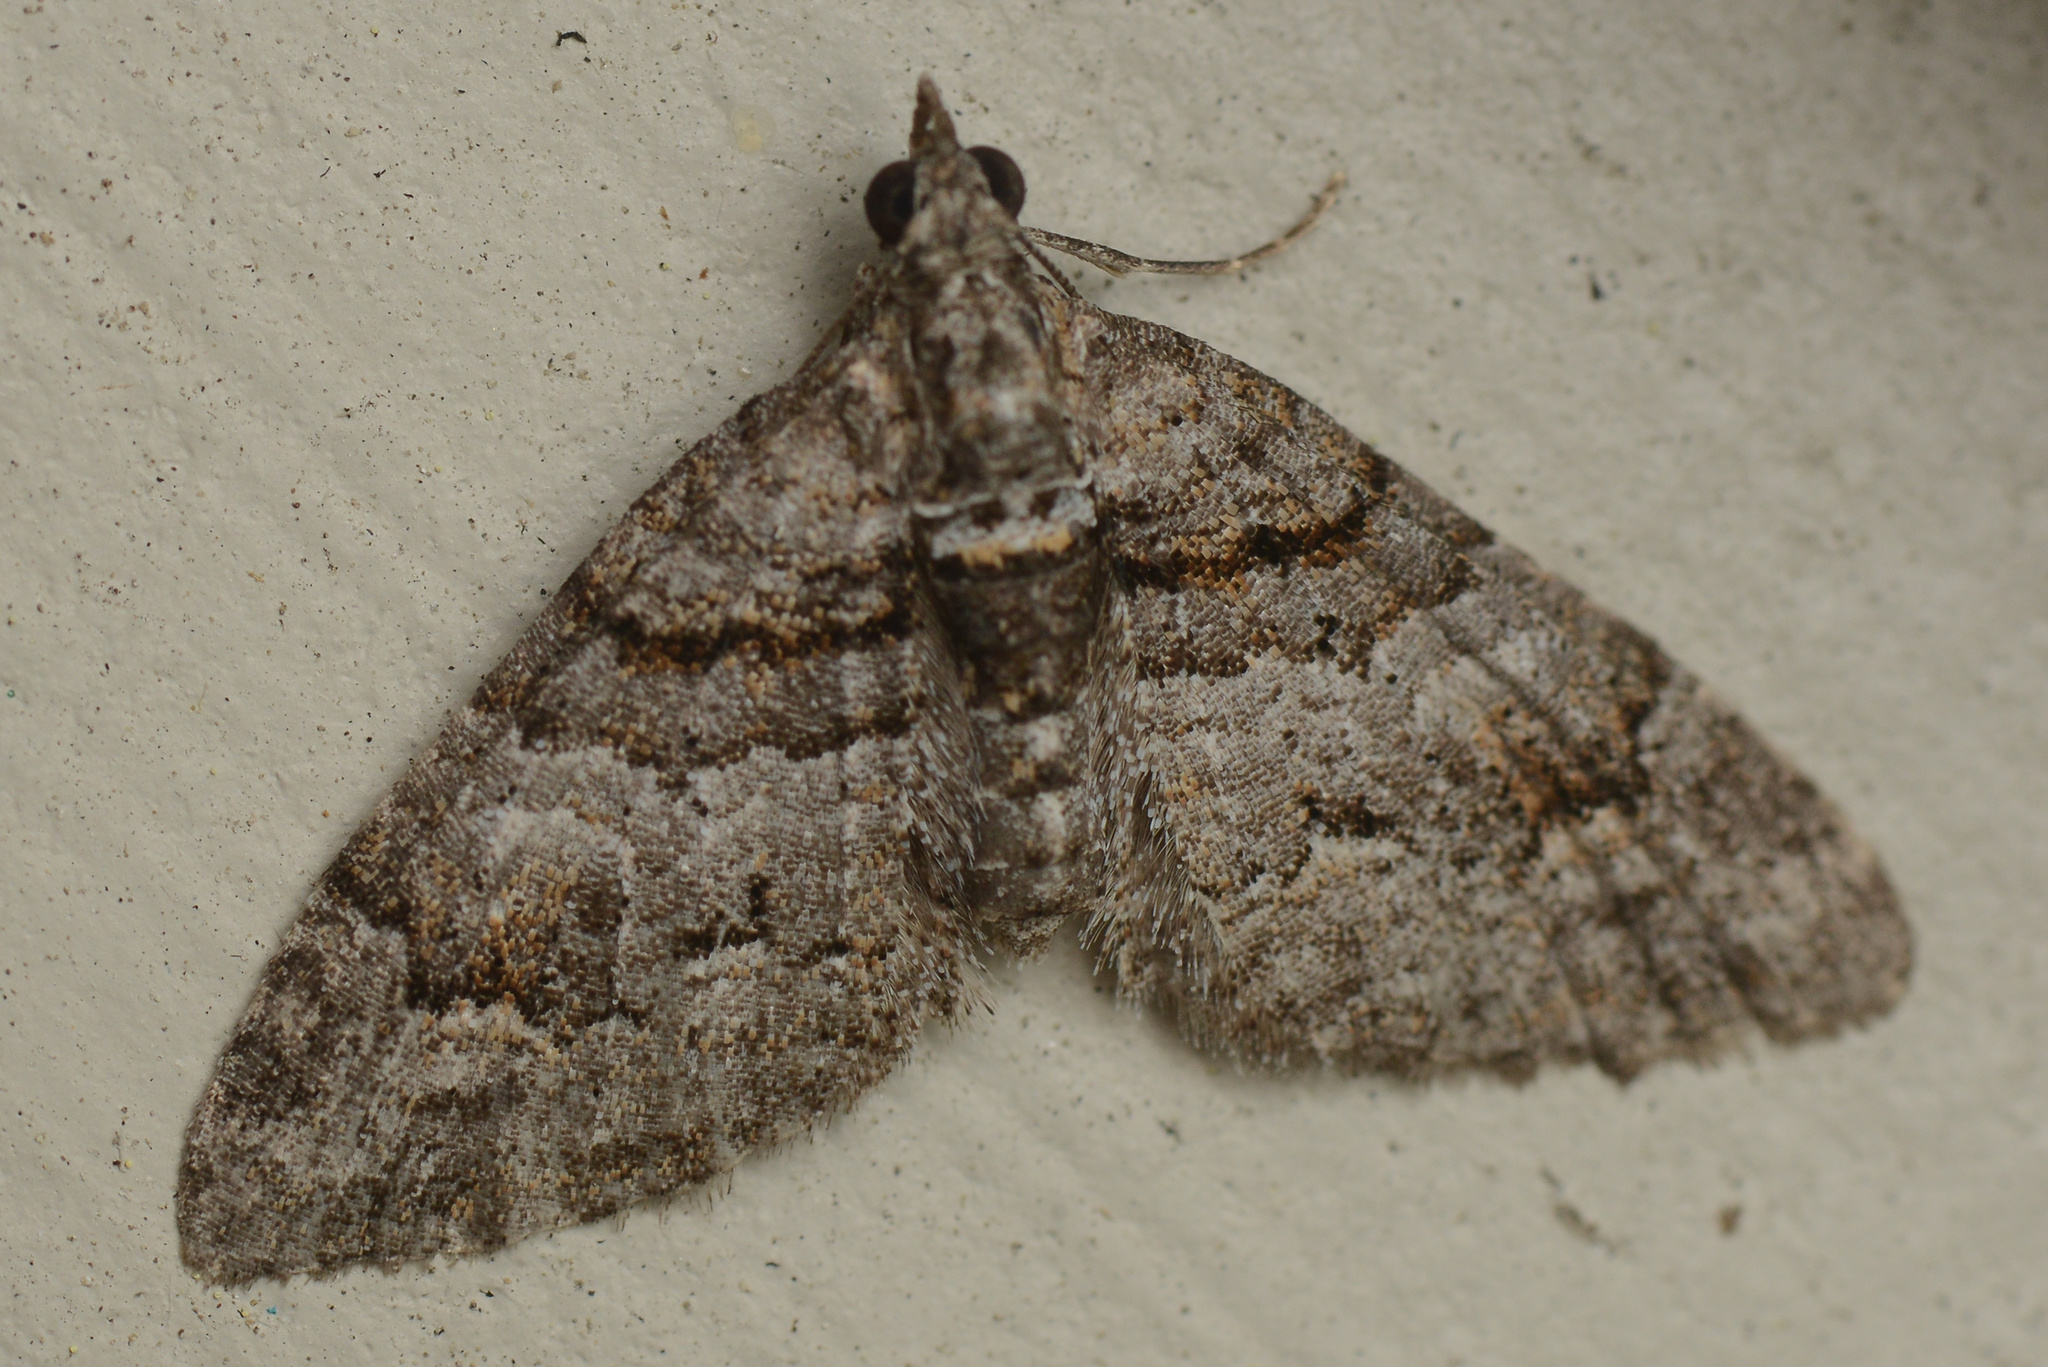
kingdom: Animalia
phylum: Arthropoda
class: Insecta
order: Lepidoptera
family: Geometridae
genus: Phrissogonus
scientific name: Phrissogonus laticostata
